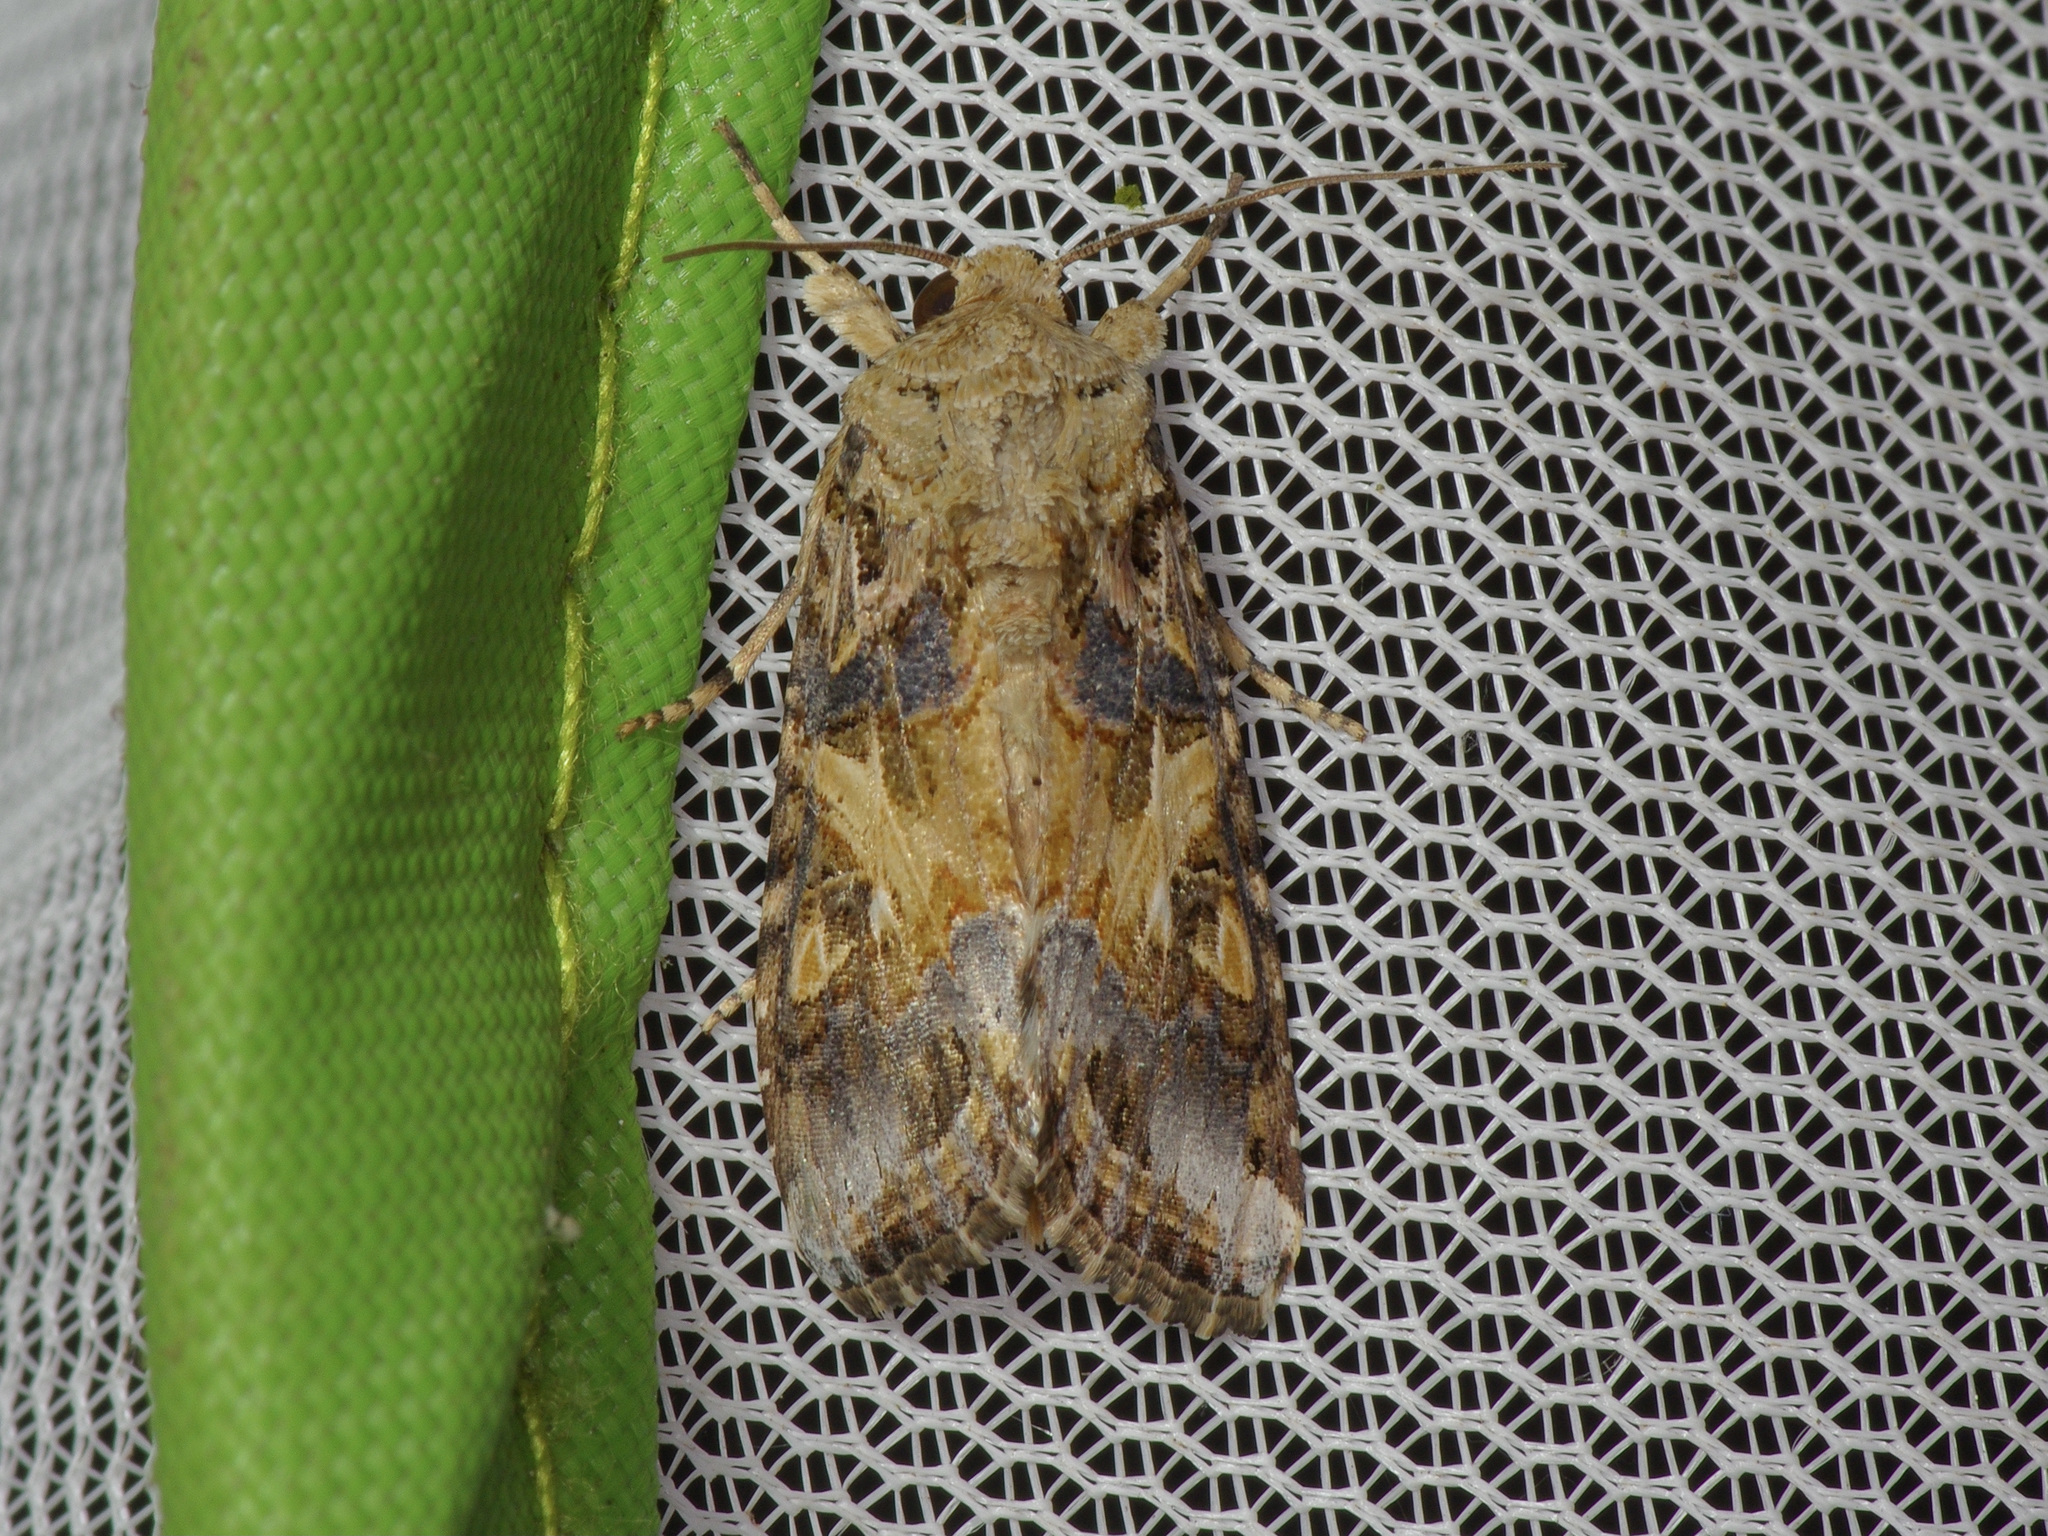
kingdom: Animalia
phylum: Arthropoda
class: Insecta
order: Lepidoptera
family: Noctuidae
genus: Spodoptera
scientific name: Spodoptera latifascia
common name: Velvet armyworm moth
